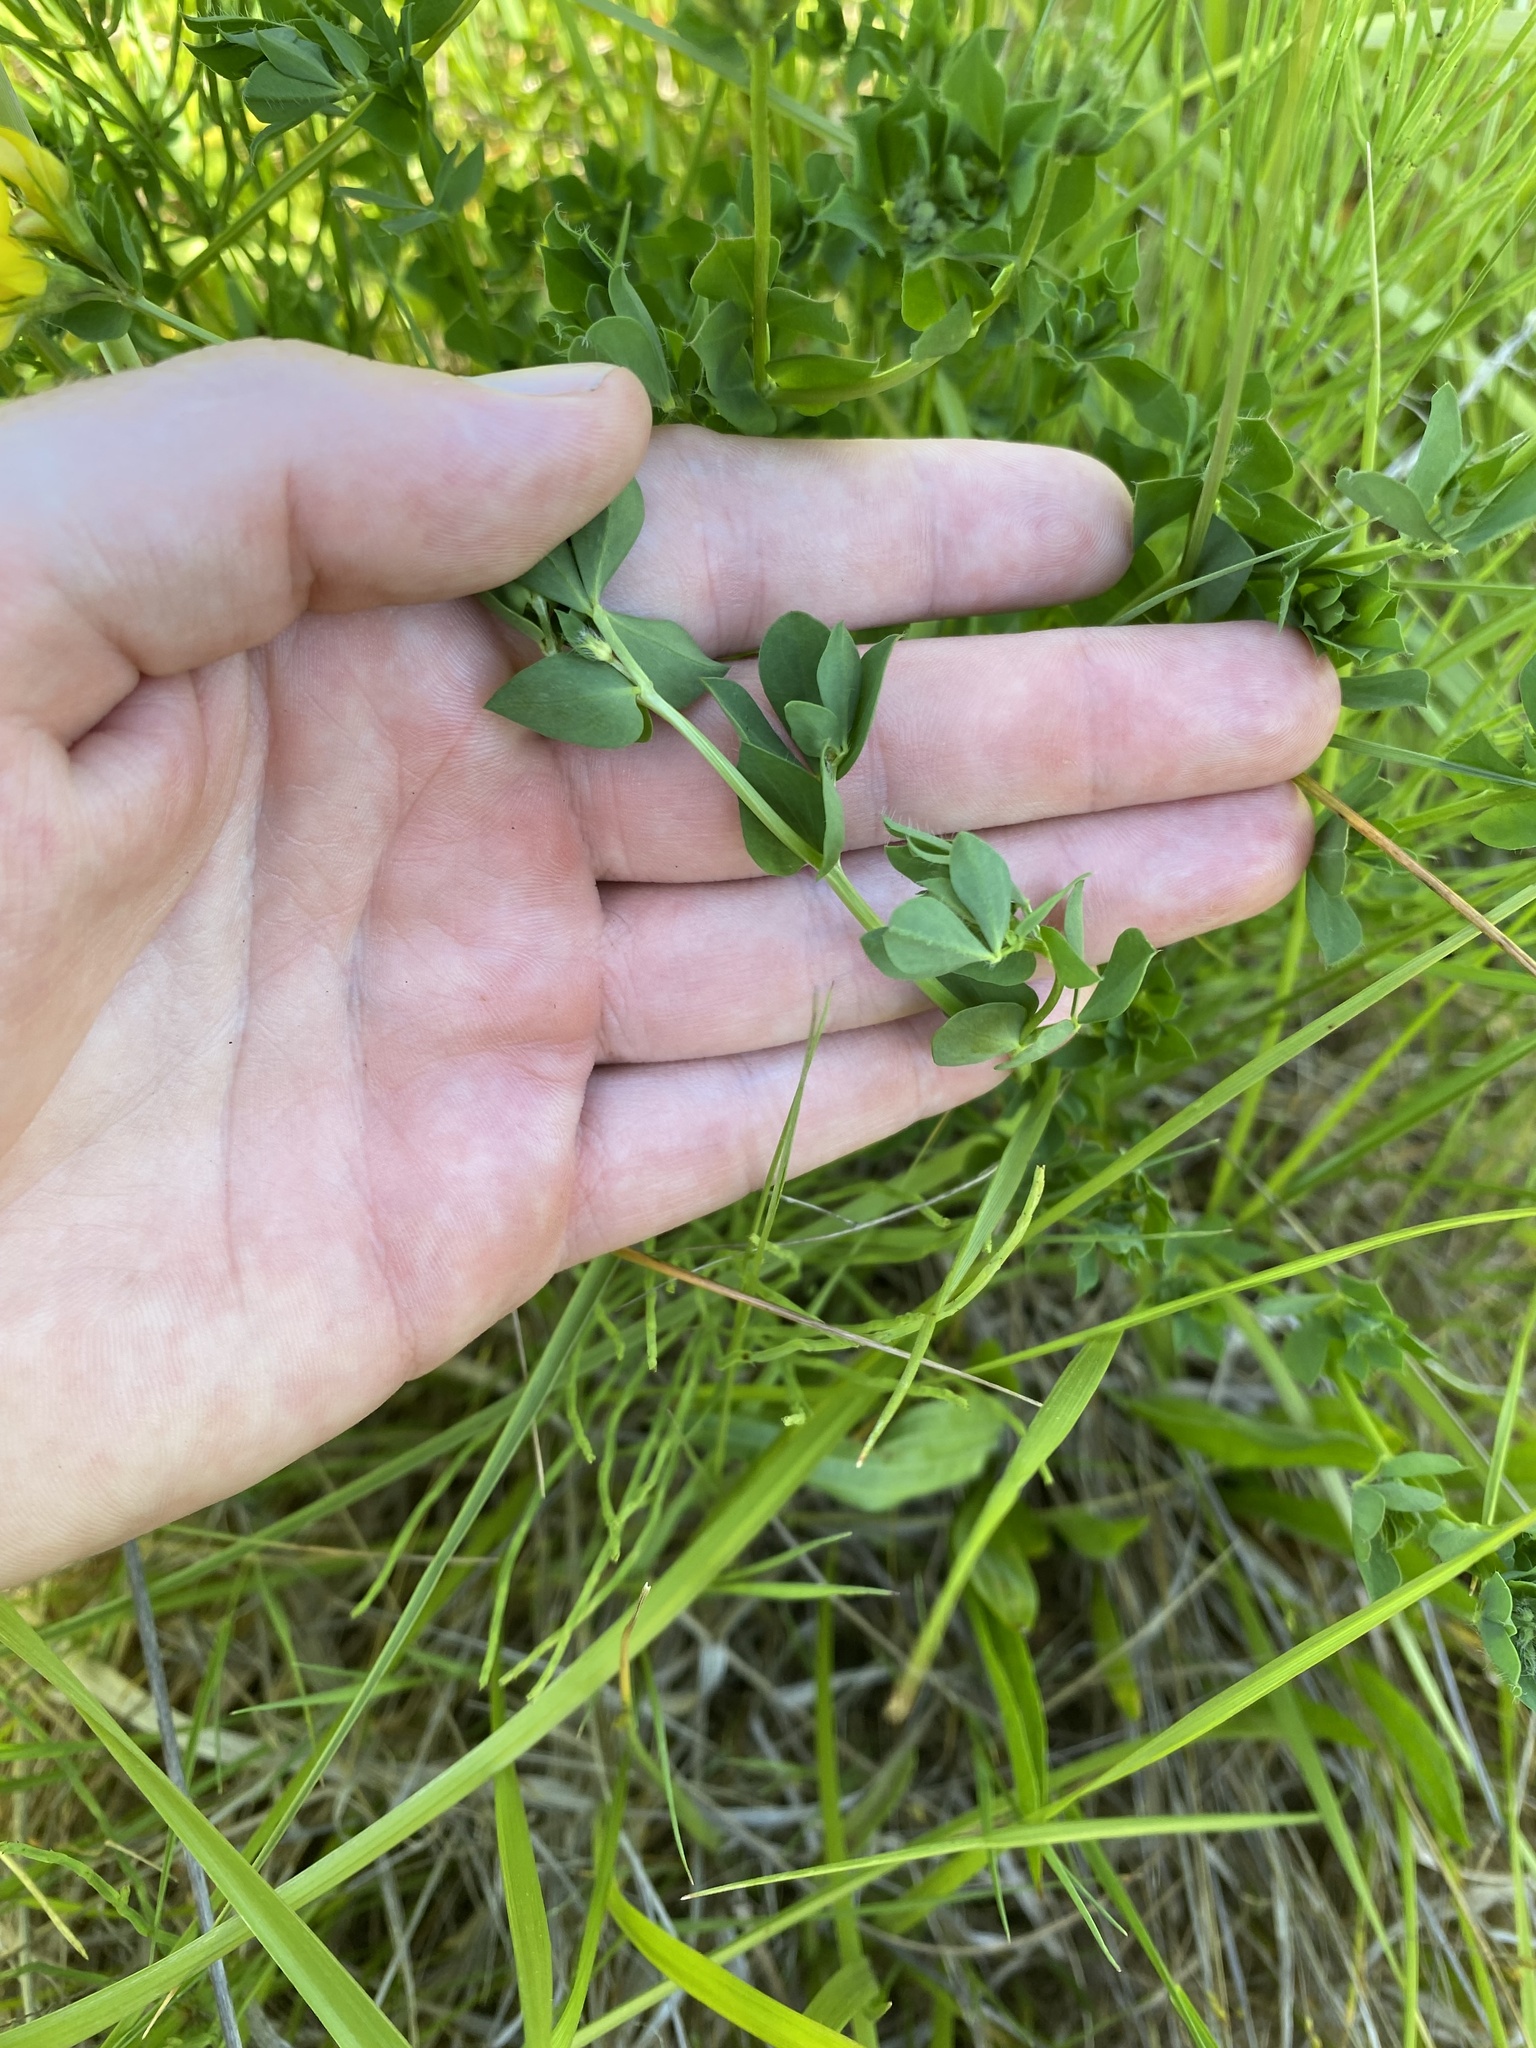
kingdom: Plantae
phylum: Tracheophyta
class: Magnoliopsida
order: Fabales
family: Fabaceae
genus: Lotus
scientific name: Lotus corniculatus
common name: Common bird's-foot-trefoil
